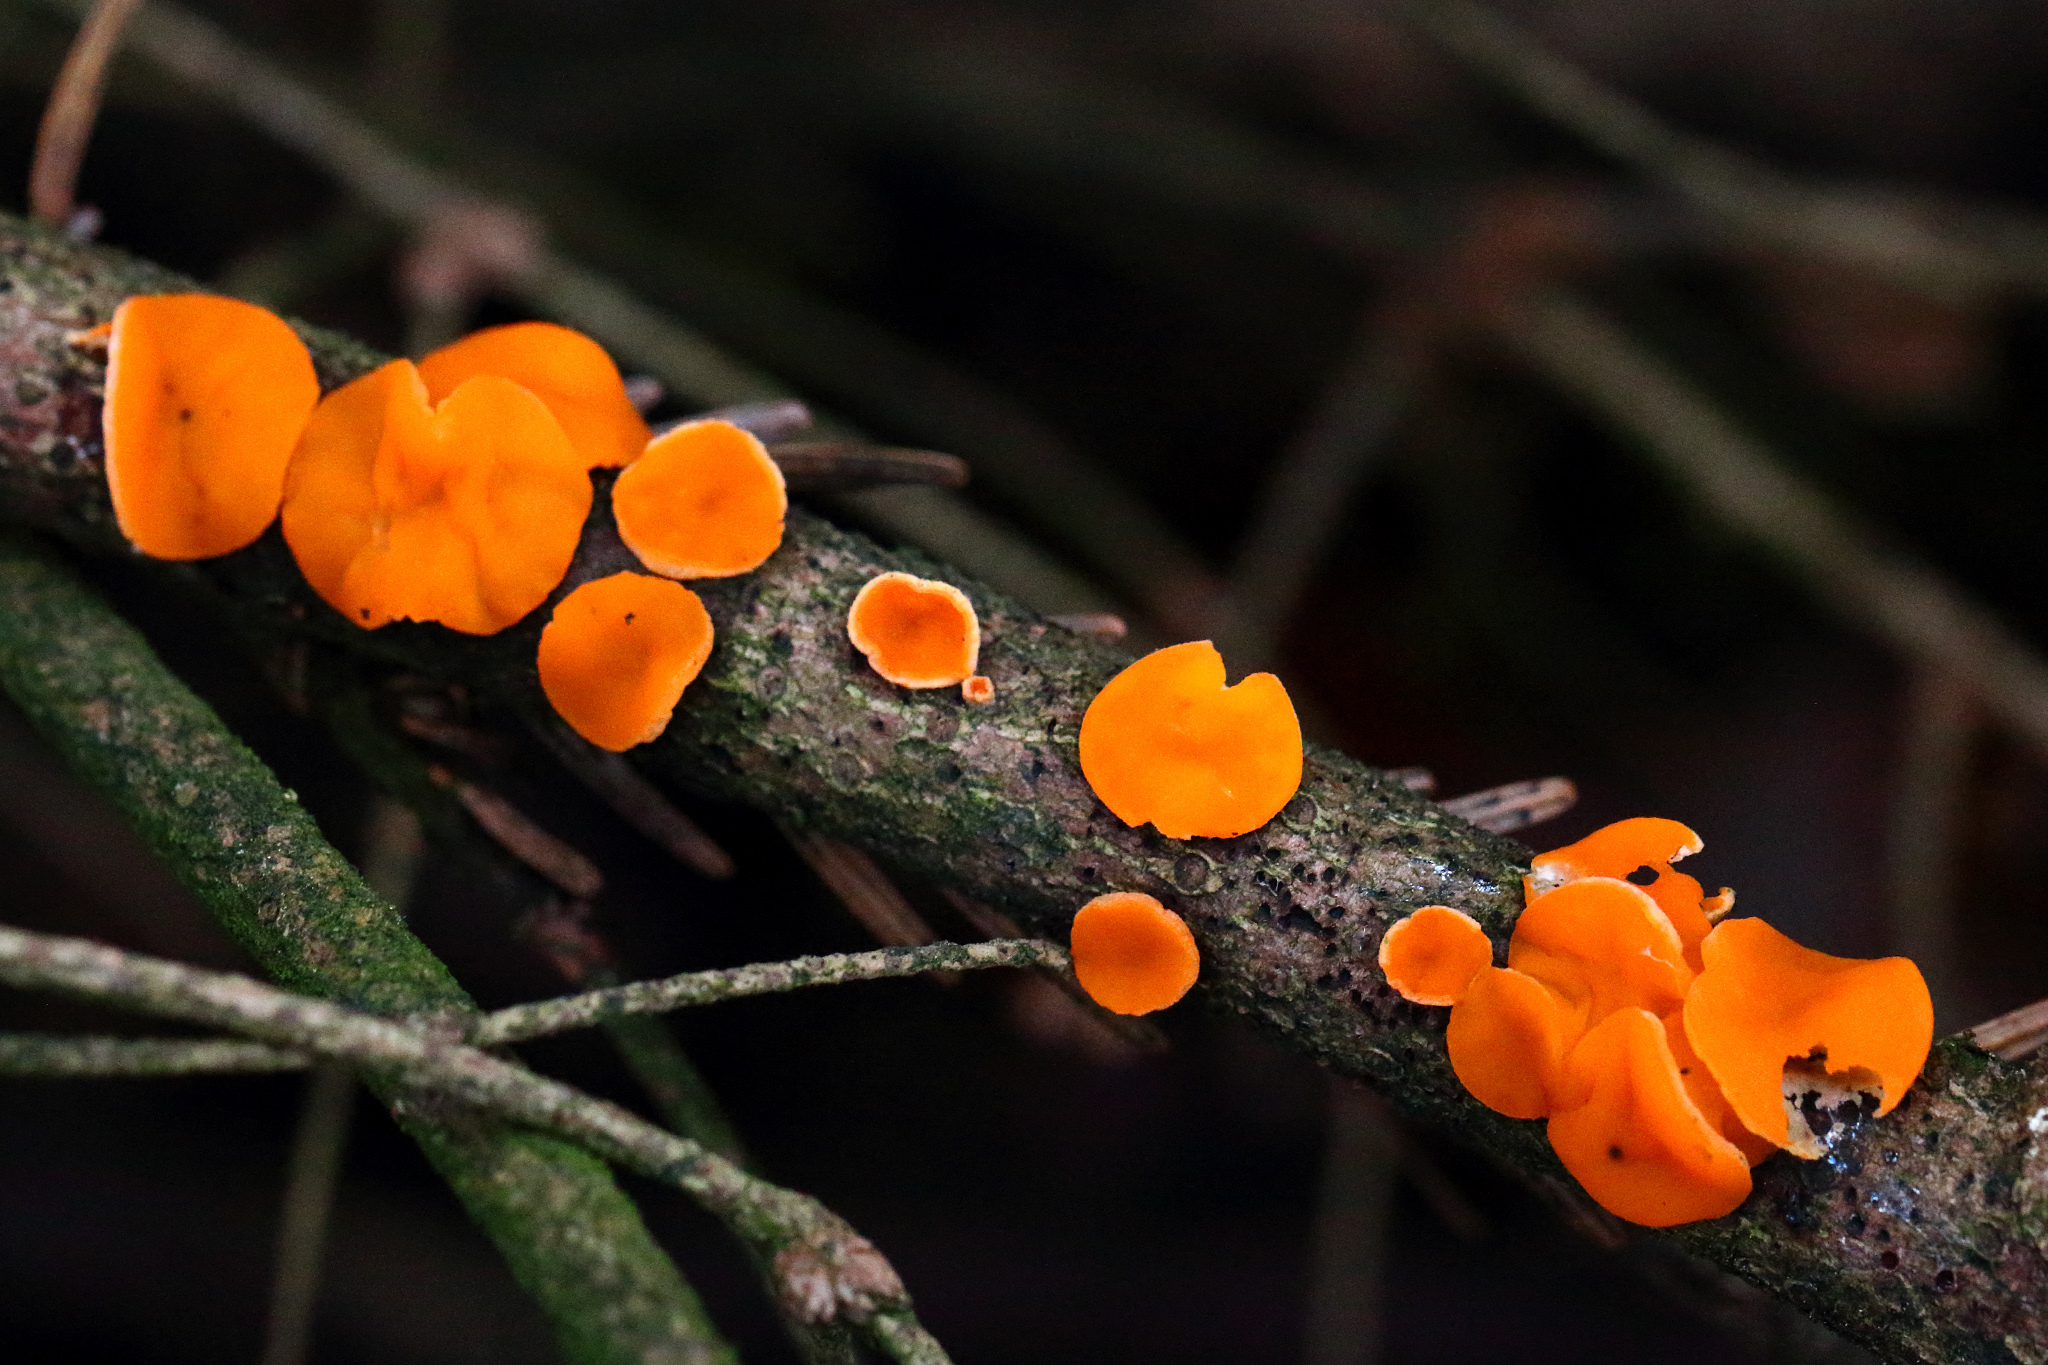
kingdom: Fungi
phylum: Ascomycota
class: Pezizomycetes
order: Pezizales
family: Sarcoscyphaceae
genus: Pithya
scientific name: Pithya vulgaris
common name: Fir disco
